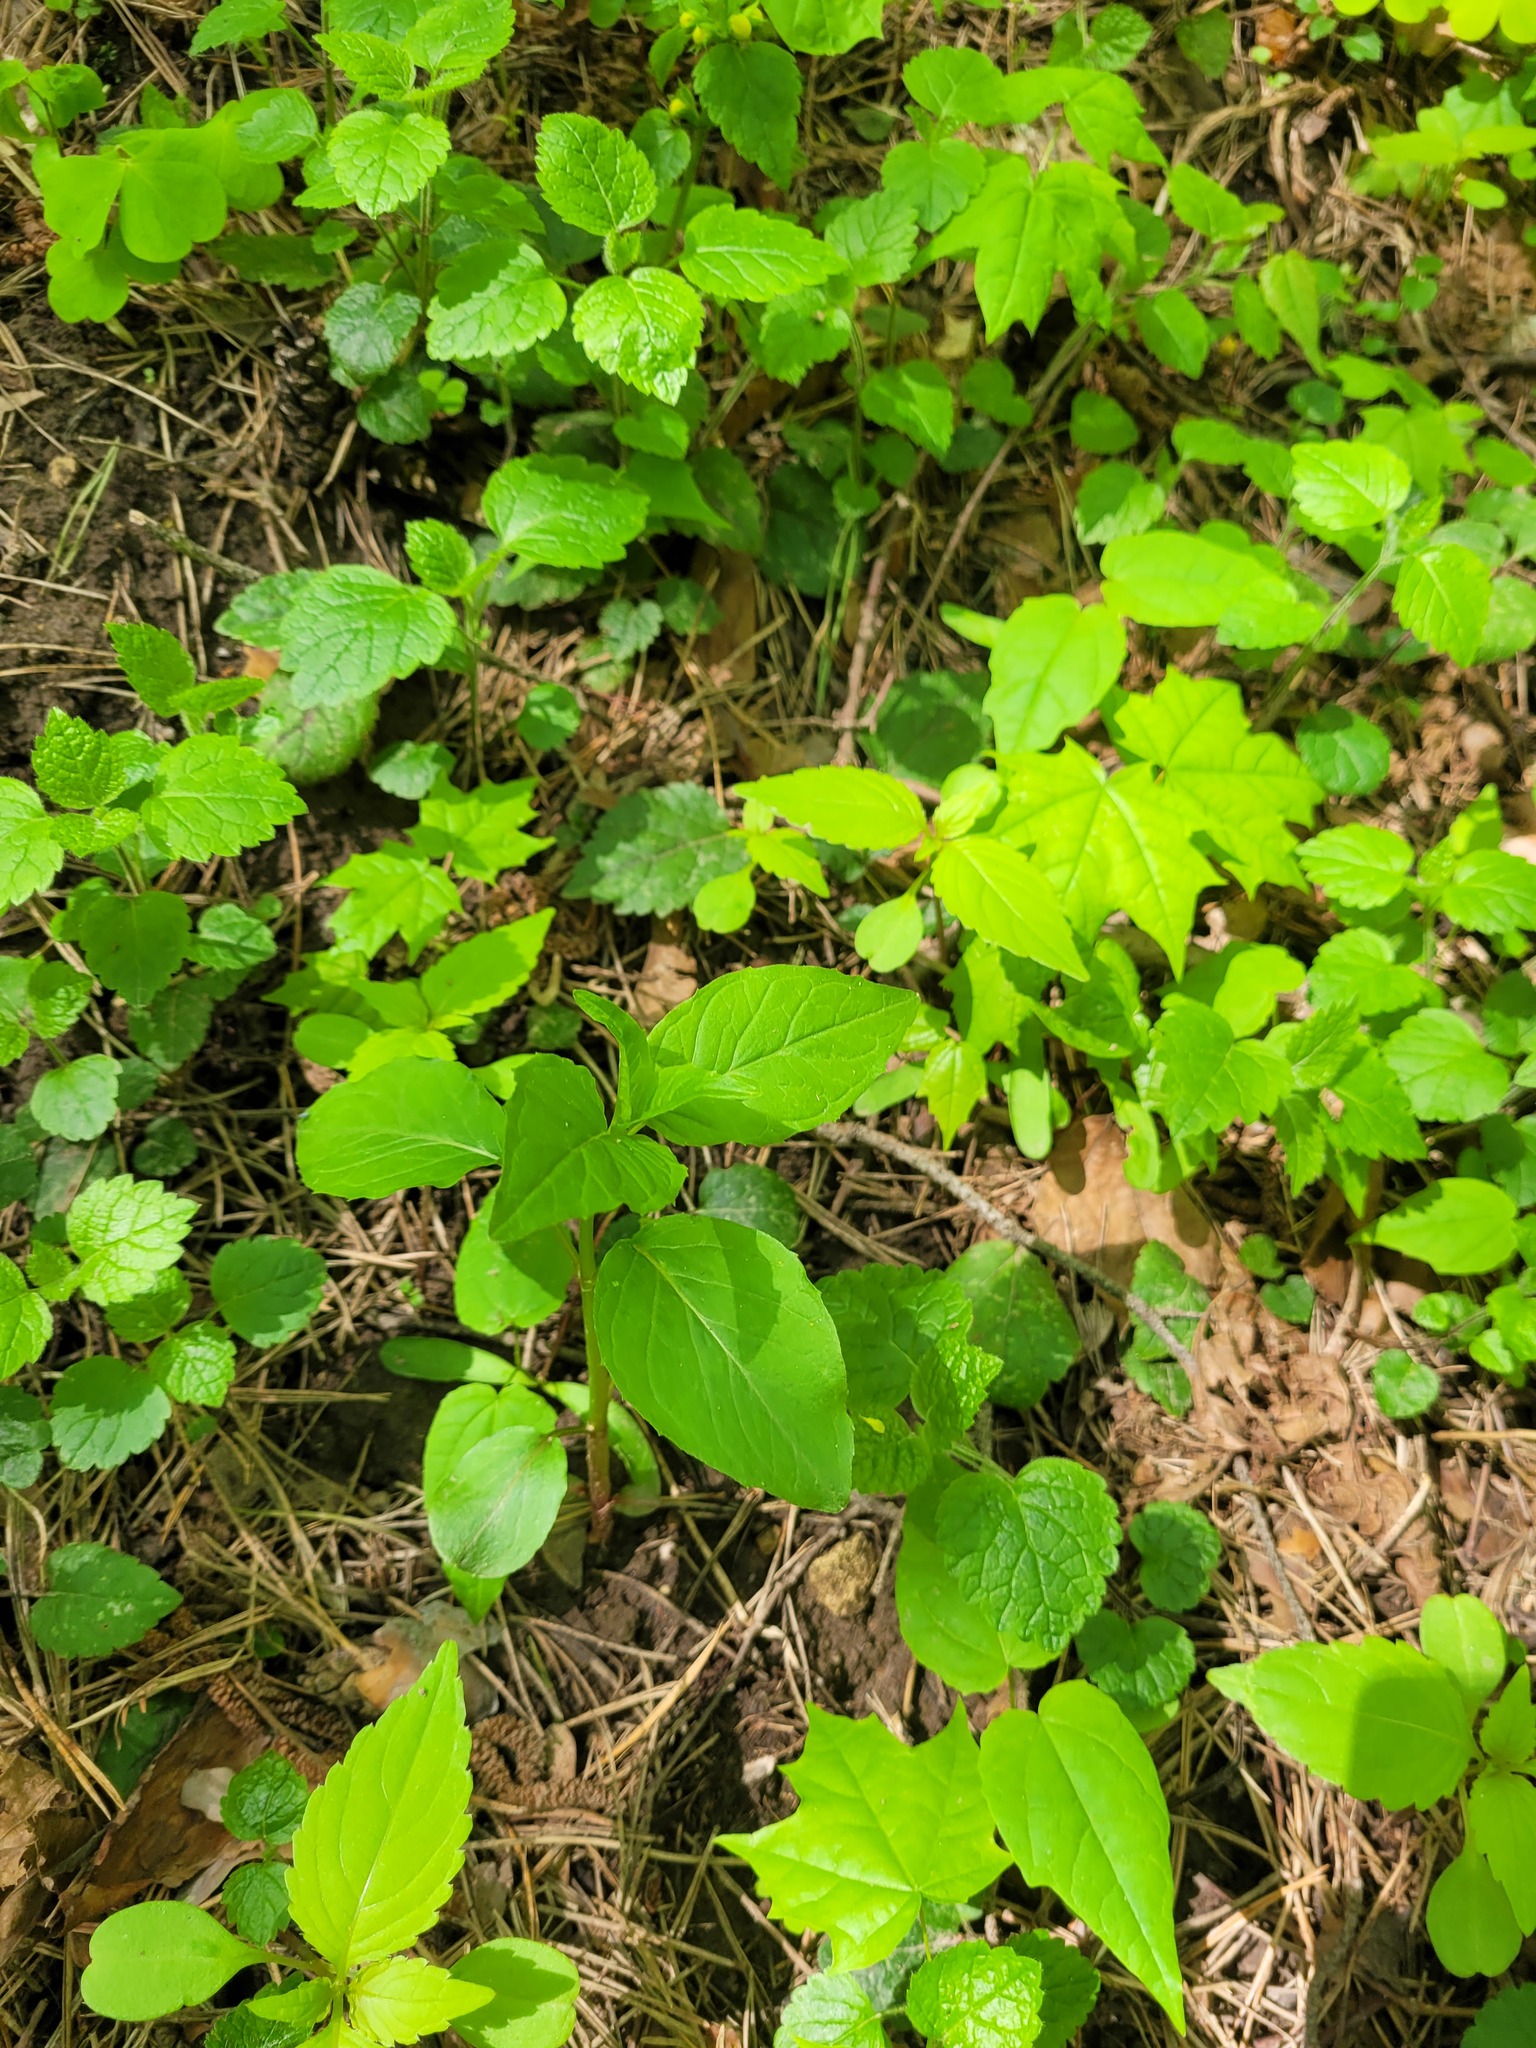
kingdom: Plantae
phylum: Tracheophyta
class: Magnoliopsida
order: Myrtales
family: Onagraceae
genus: Circaea
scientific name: Circaea lutetiana
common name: Enchanter's-nightshade
